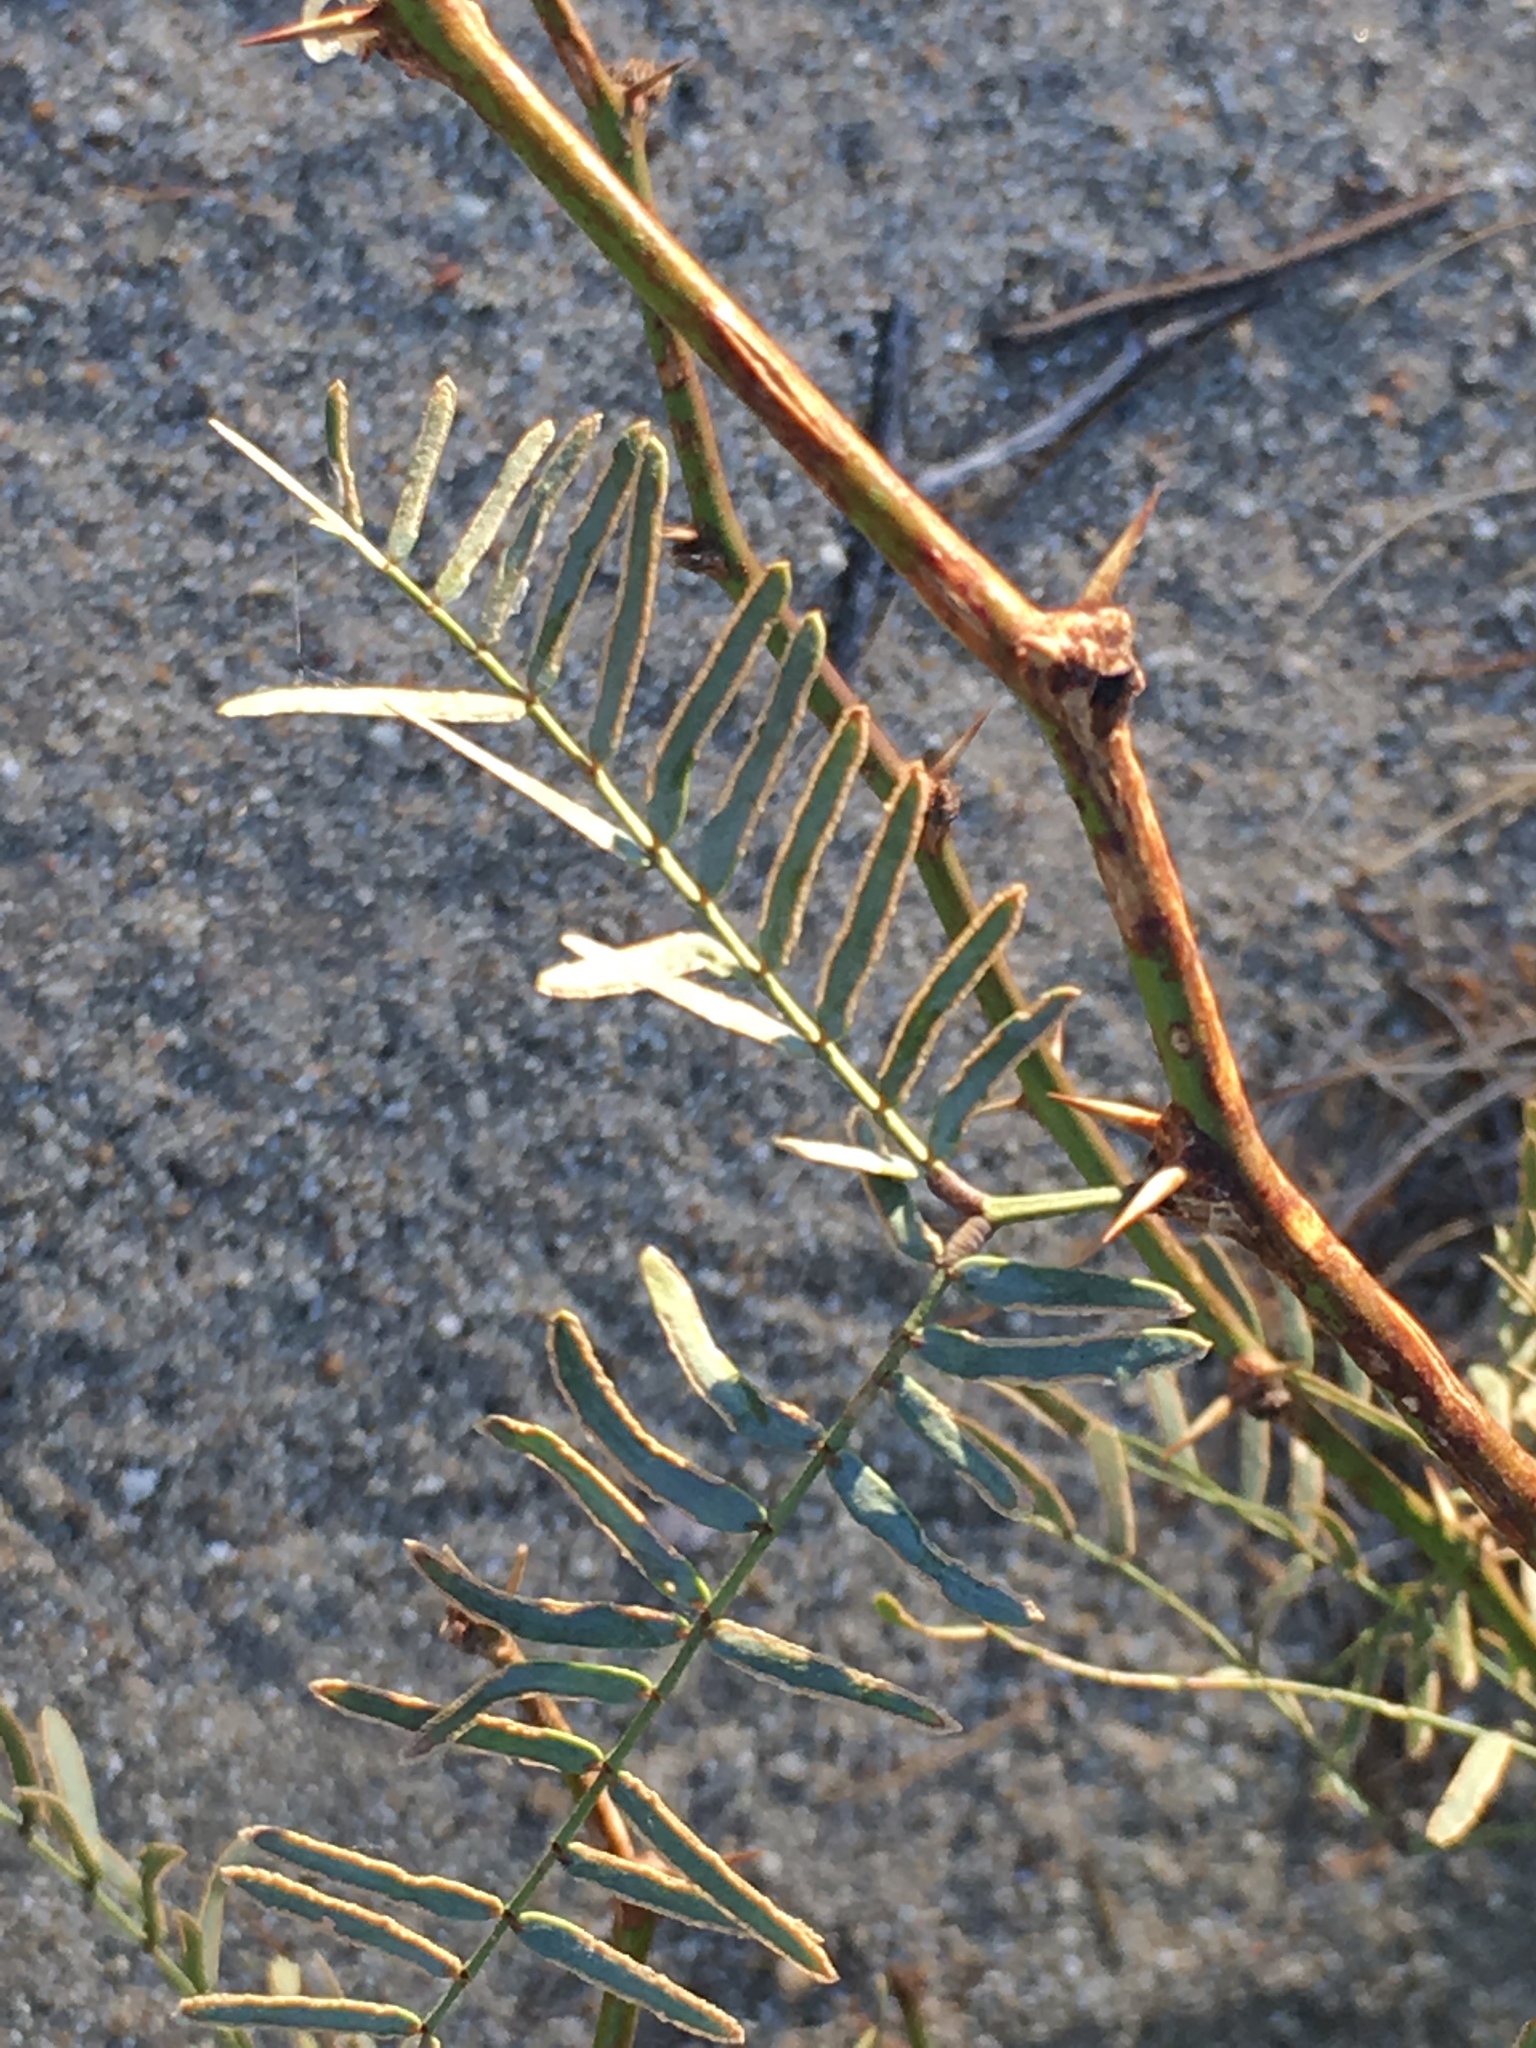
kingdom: Plantae
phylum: Tracheophyta
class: Magnoliopsida
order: Fabales
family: Fabaceae
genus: Prosopis
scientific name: Prosopis pubescens
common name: Screw-bean
